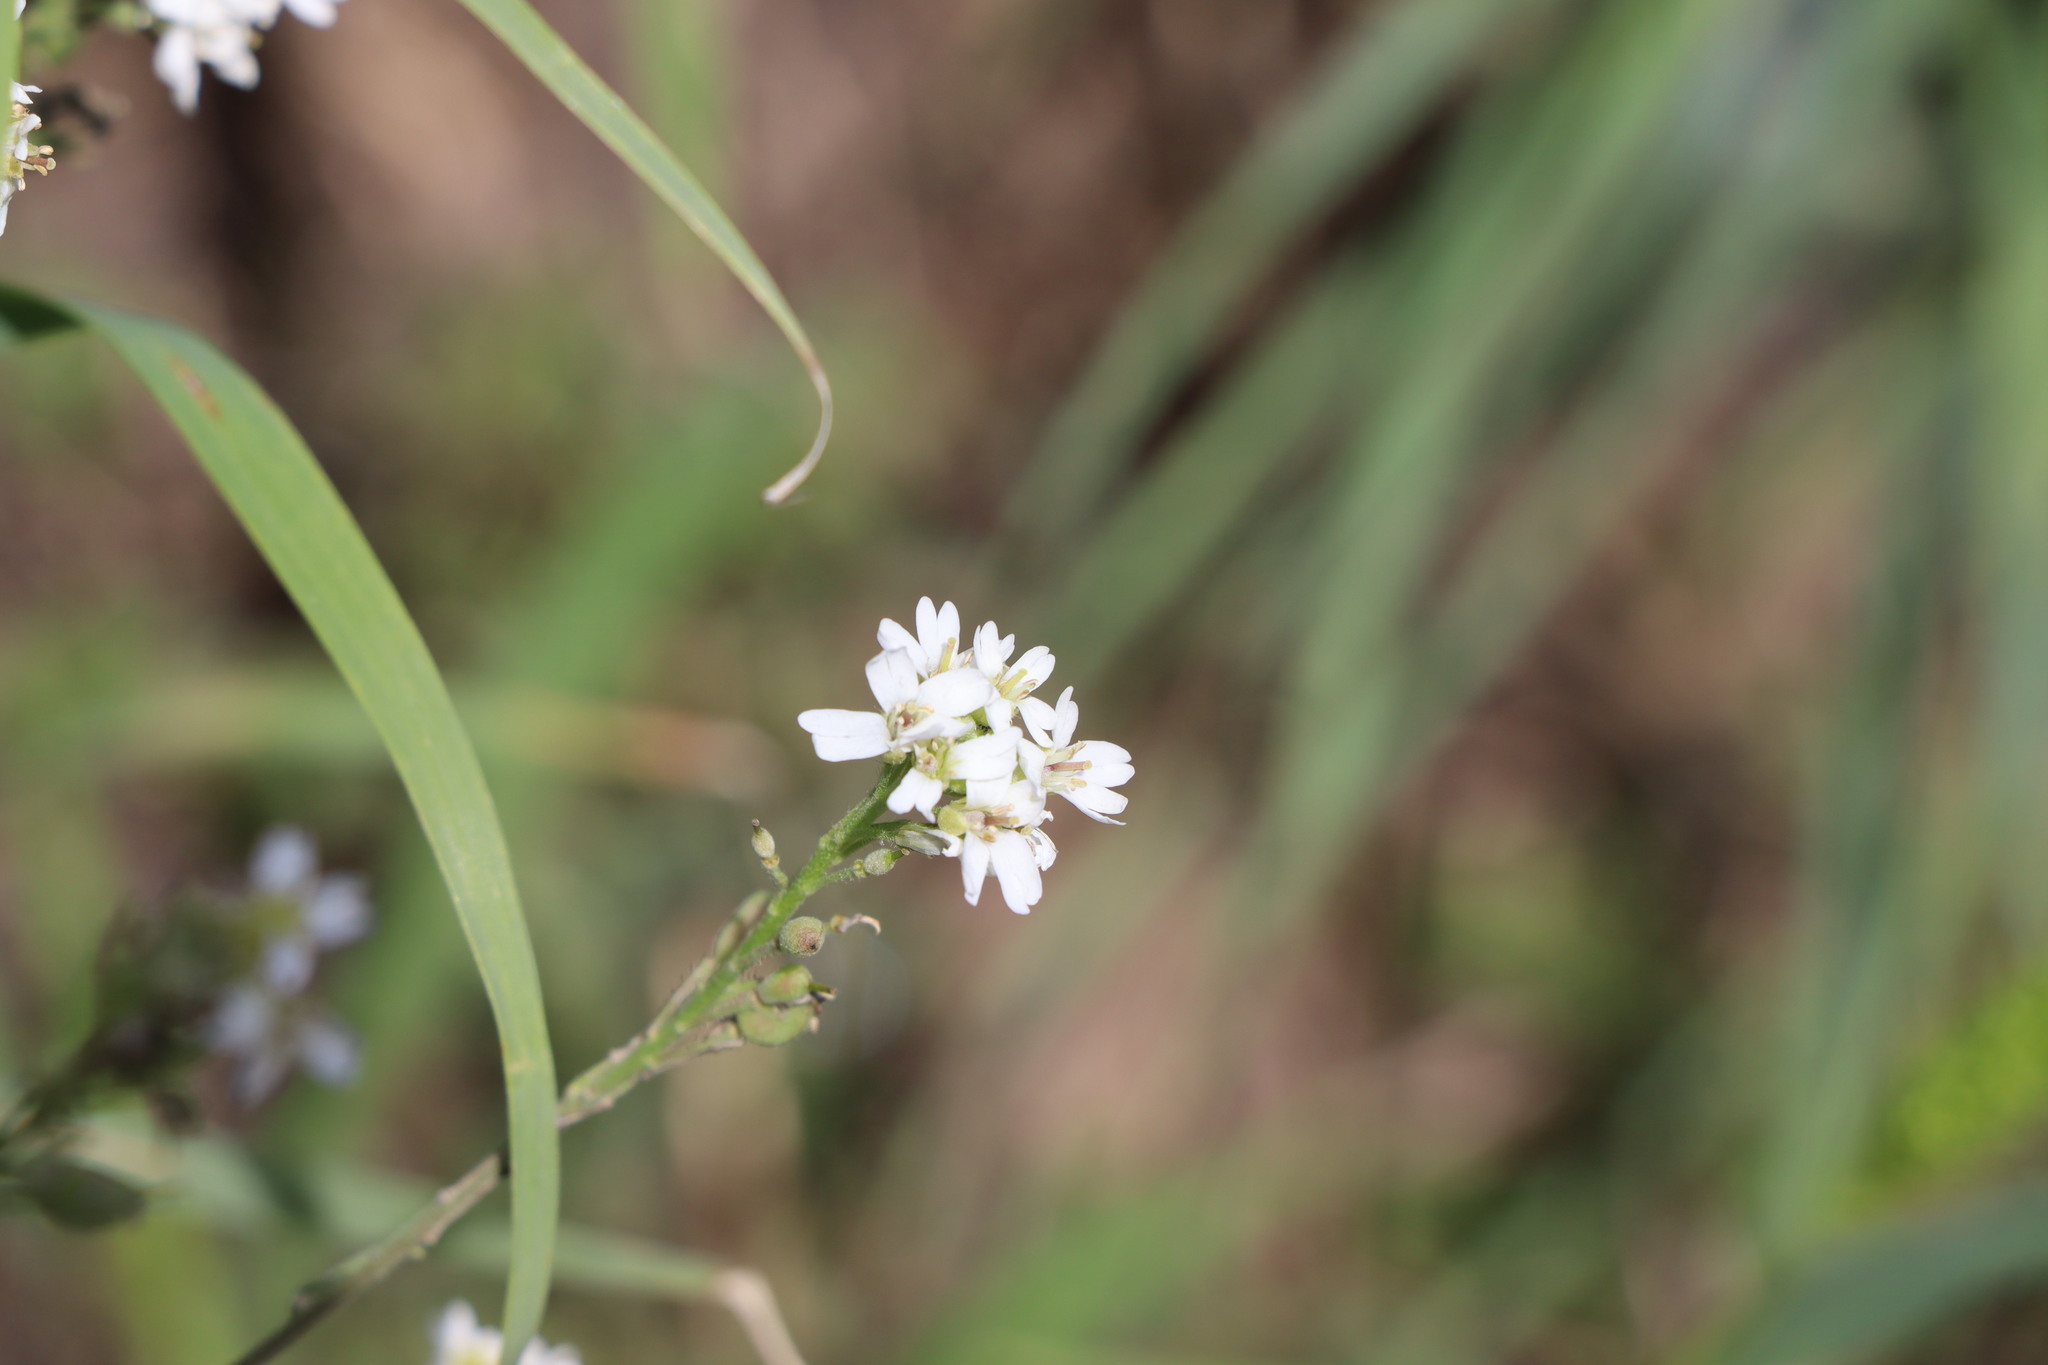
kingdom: Plantae
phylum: Tracheophyta
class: Magnoliopsida
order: Brassicales
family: Brassicaceae
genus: Berteroa
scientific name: Berteroa incana
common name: Hoary alison
